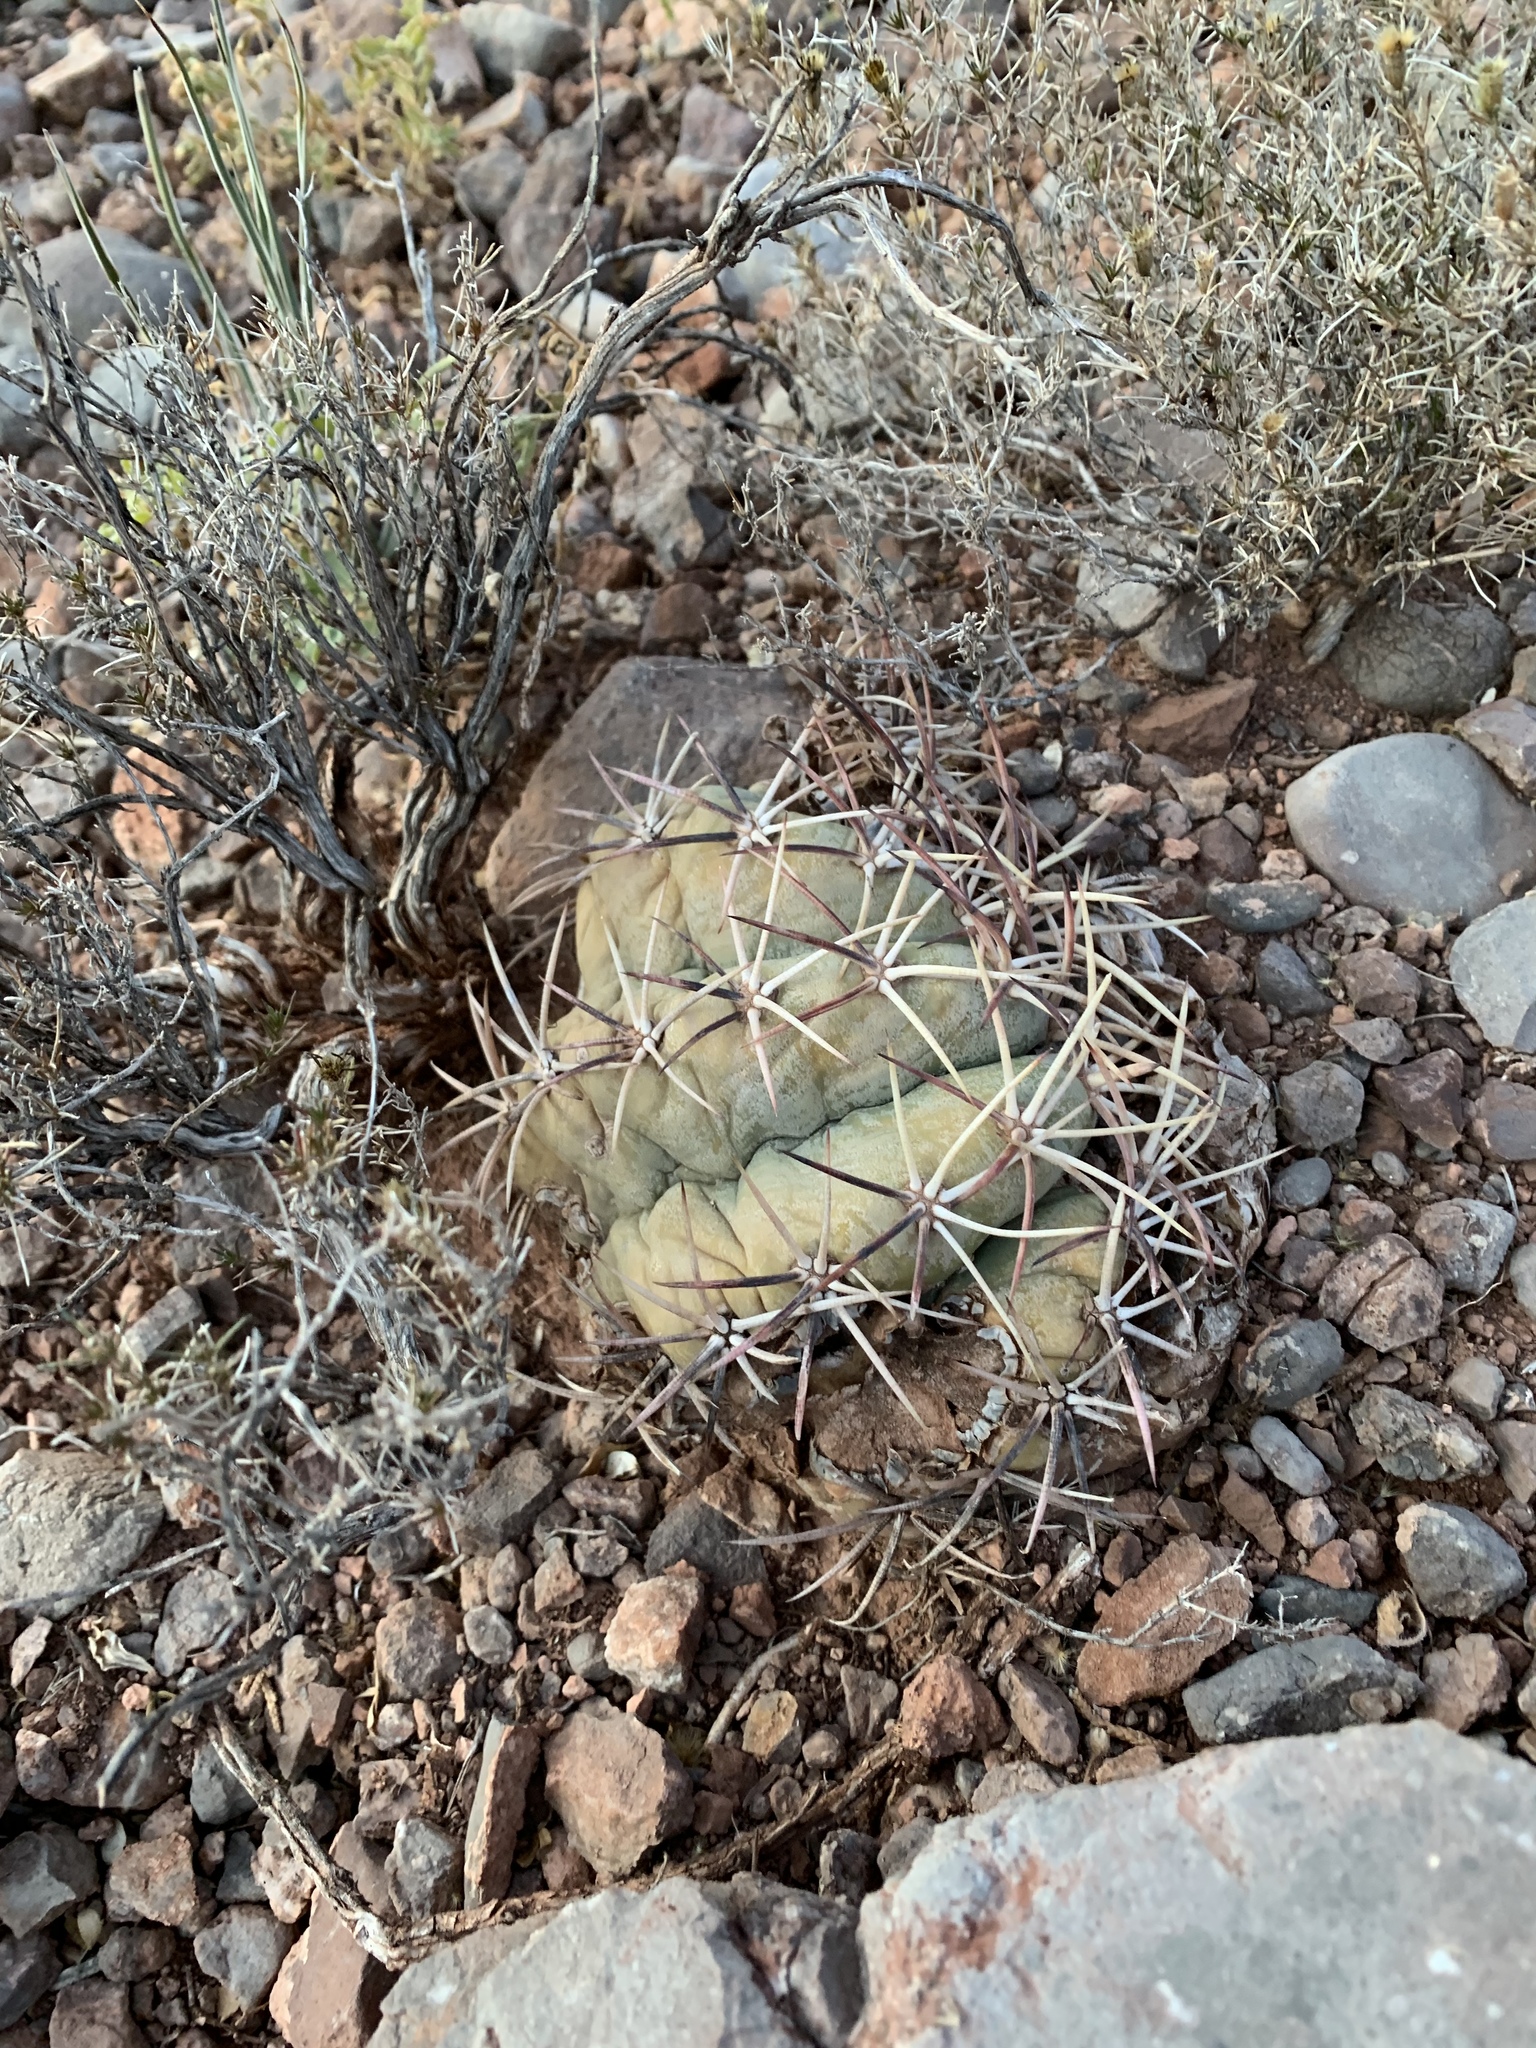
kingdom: Plantae
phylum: Tracheophyta
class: Magnoliopsida
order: Caryophyllales
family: Cactaceae
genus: Echinocactus
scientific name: Echinocactus horizonthalonius
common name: Devilshead
